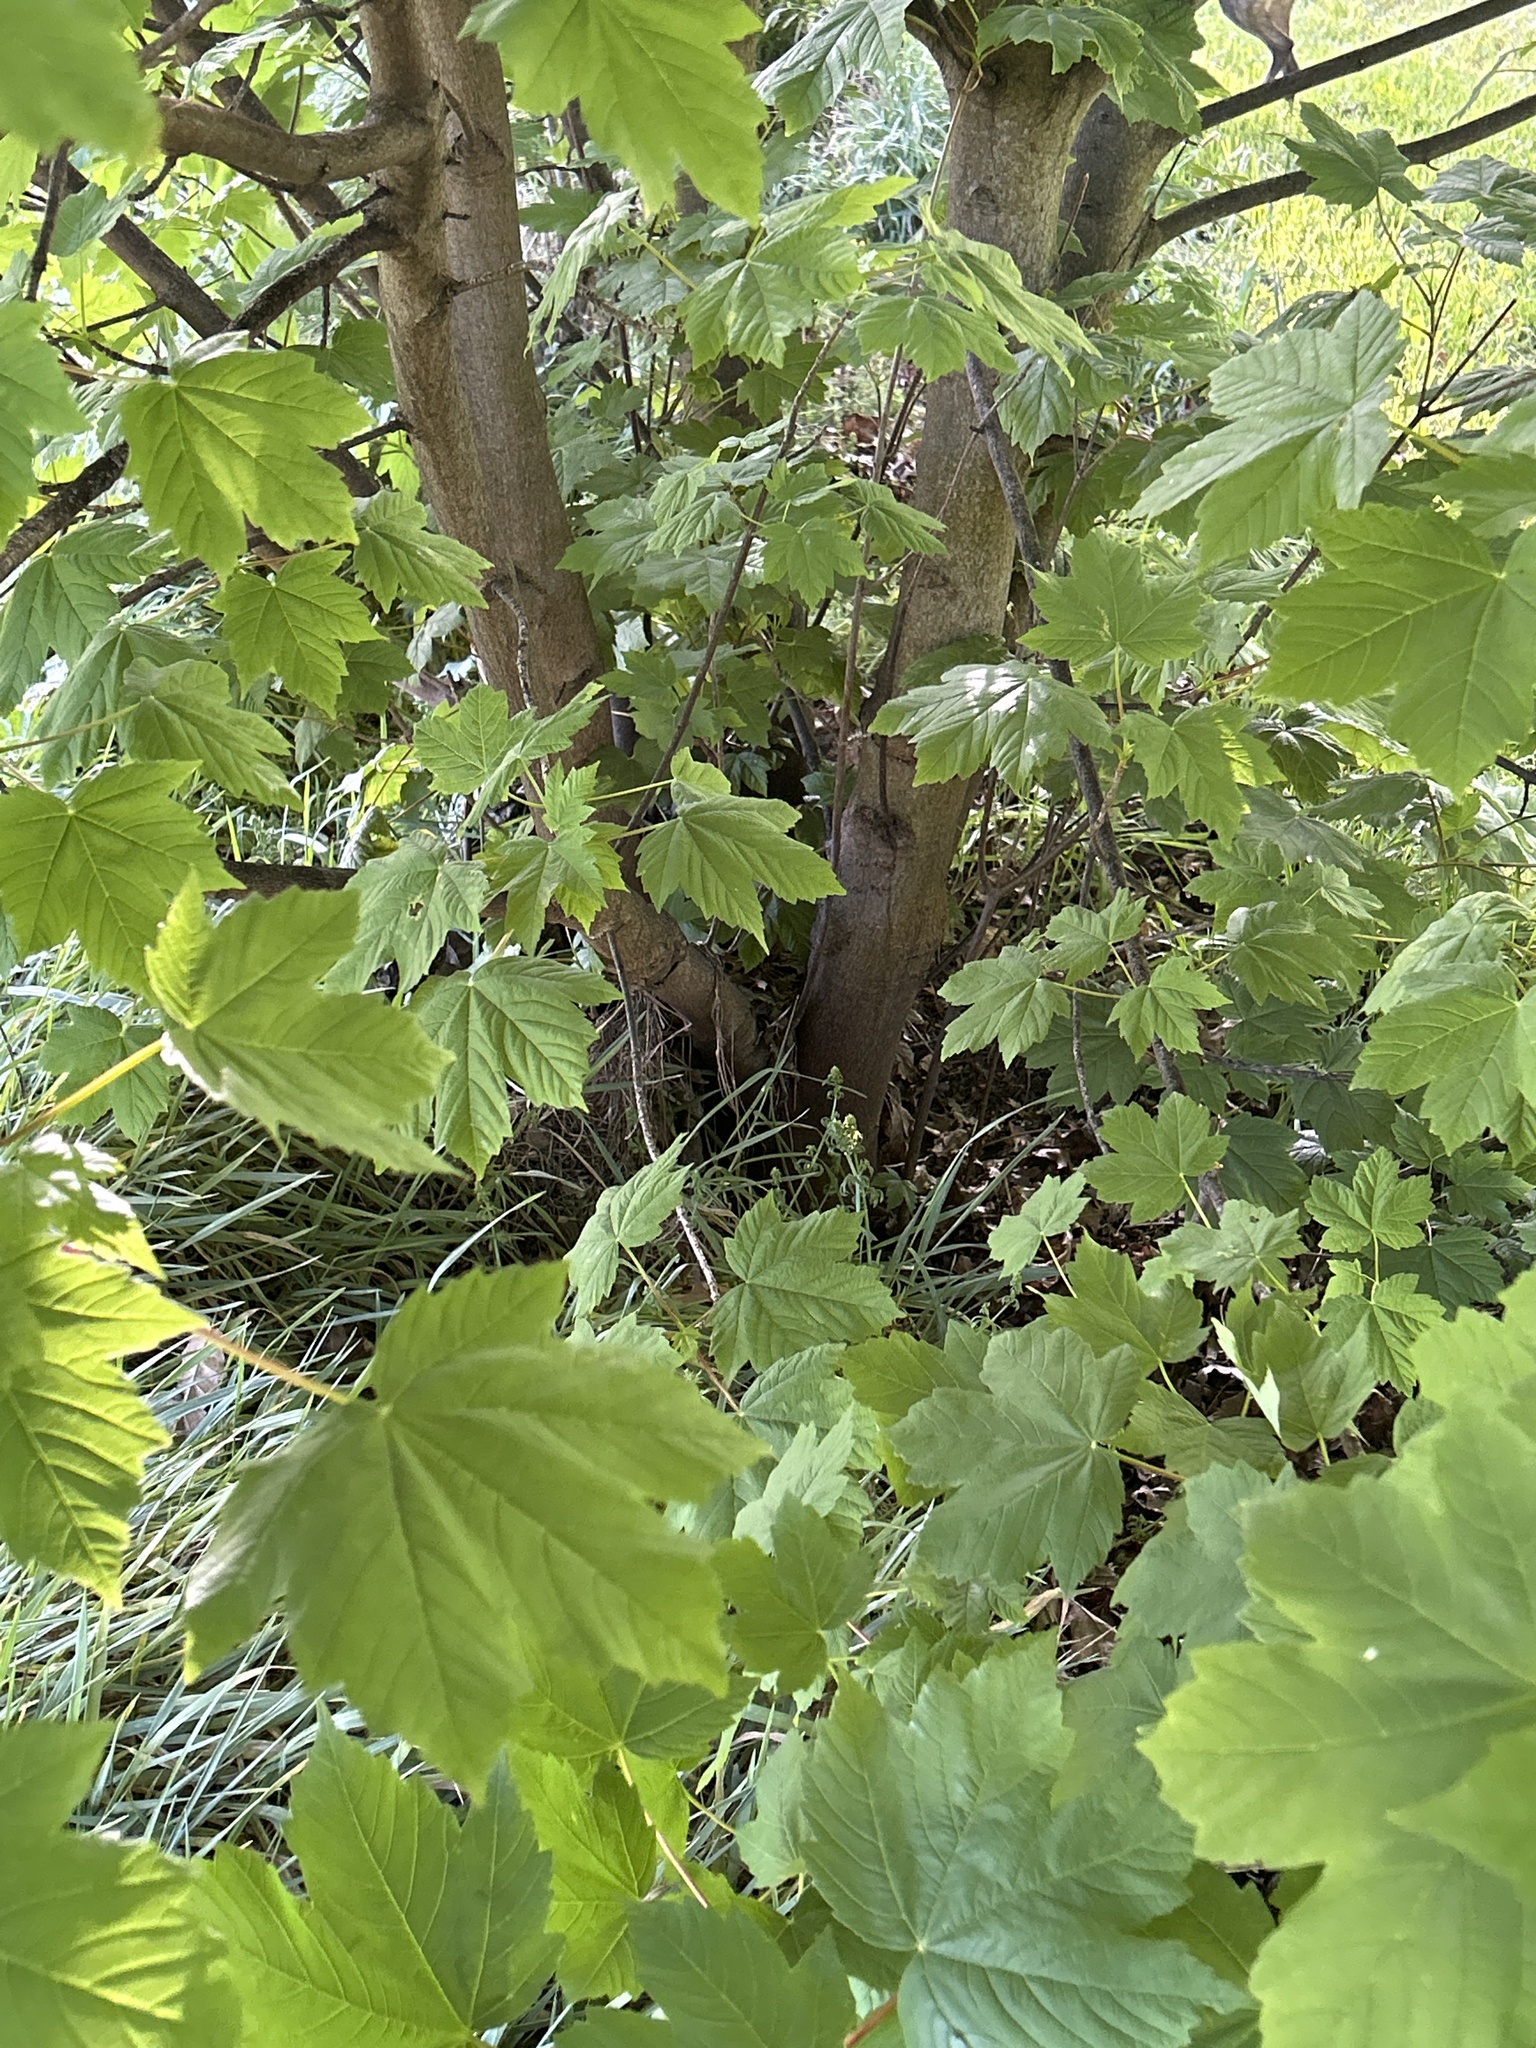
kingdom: Plantae
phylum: Tracheophyta
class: Magnoliopsida
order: Sapindales
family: Sapindaceae
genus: Acer
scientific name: Acer pseudoplatanus
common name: Sycamore
